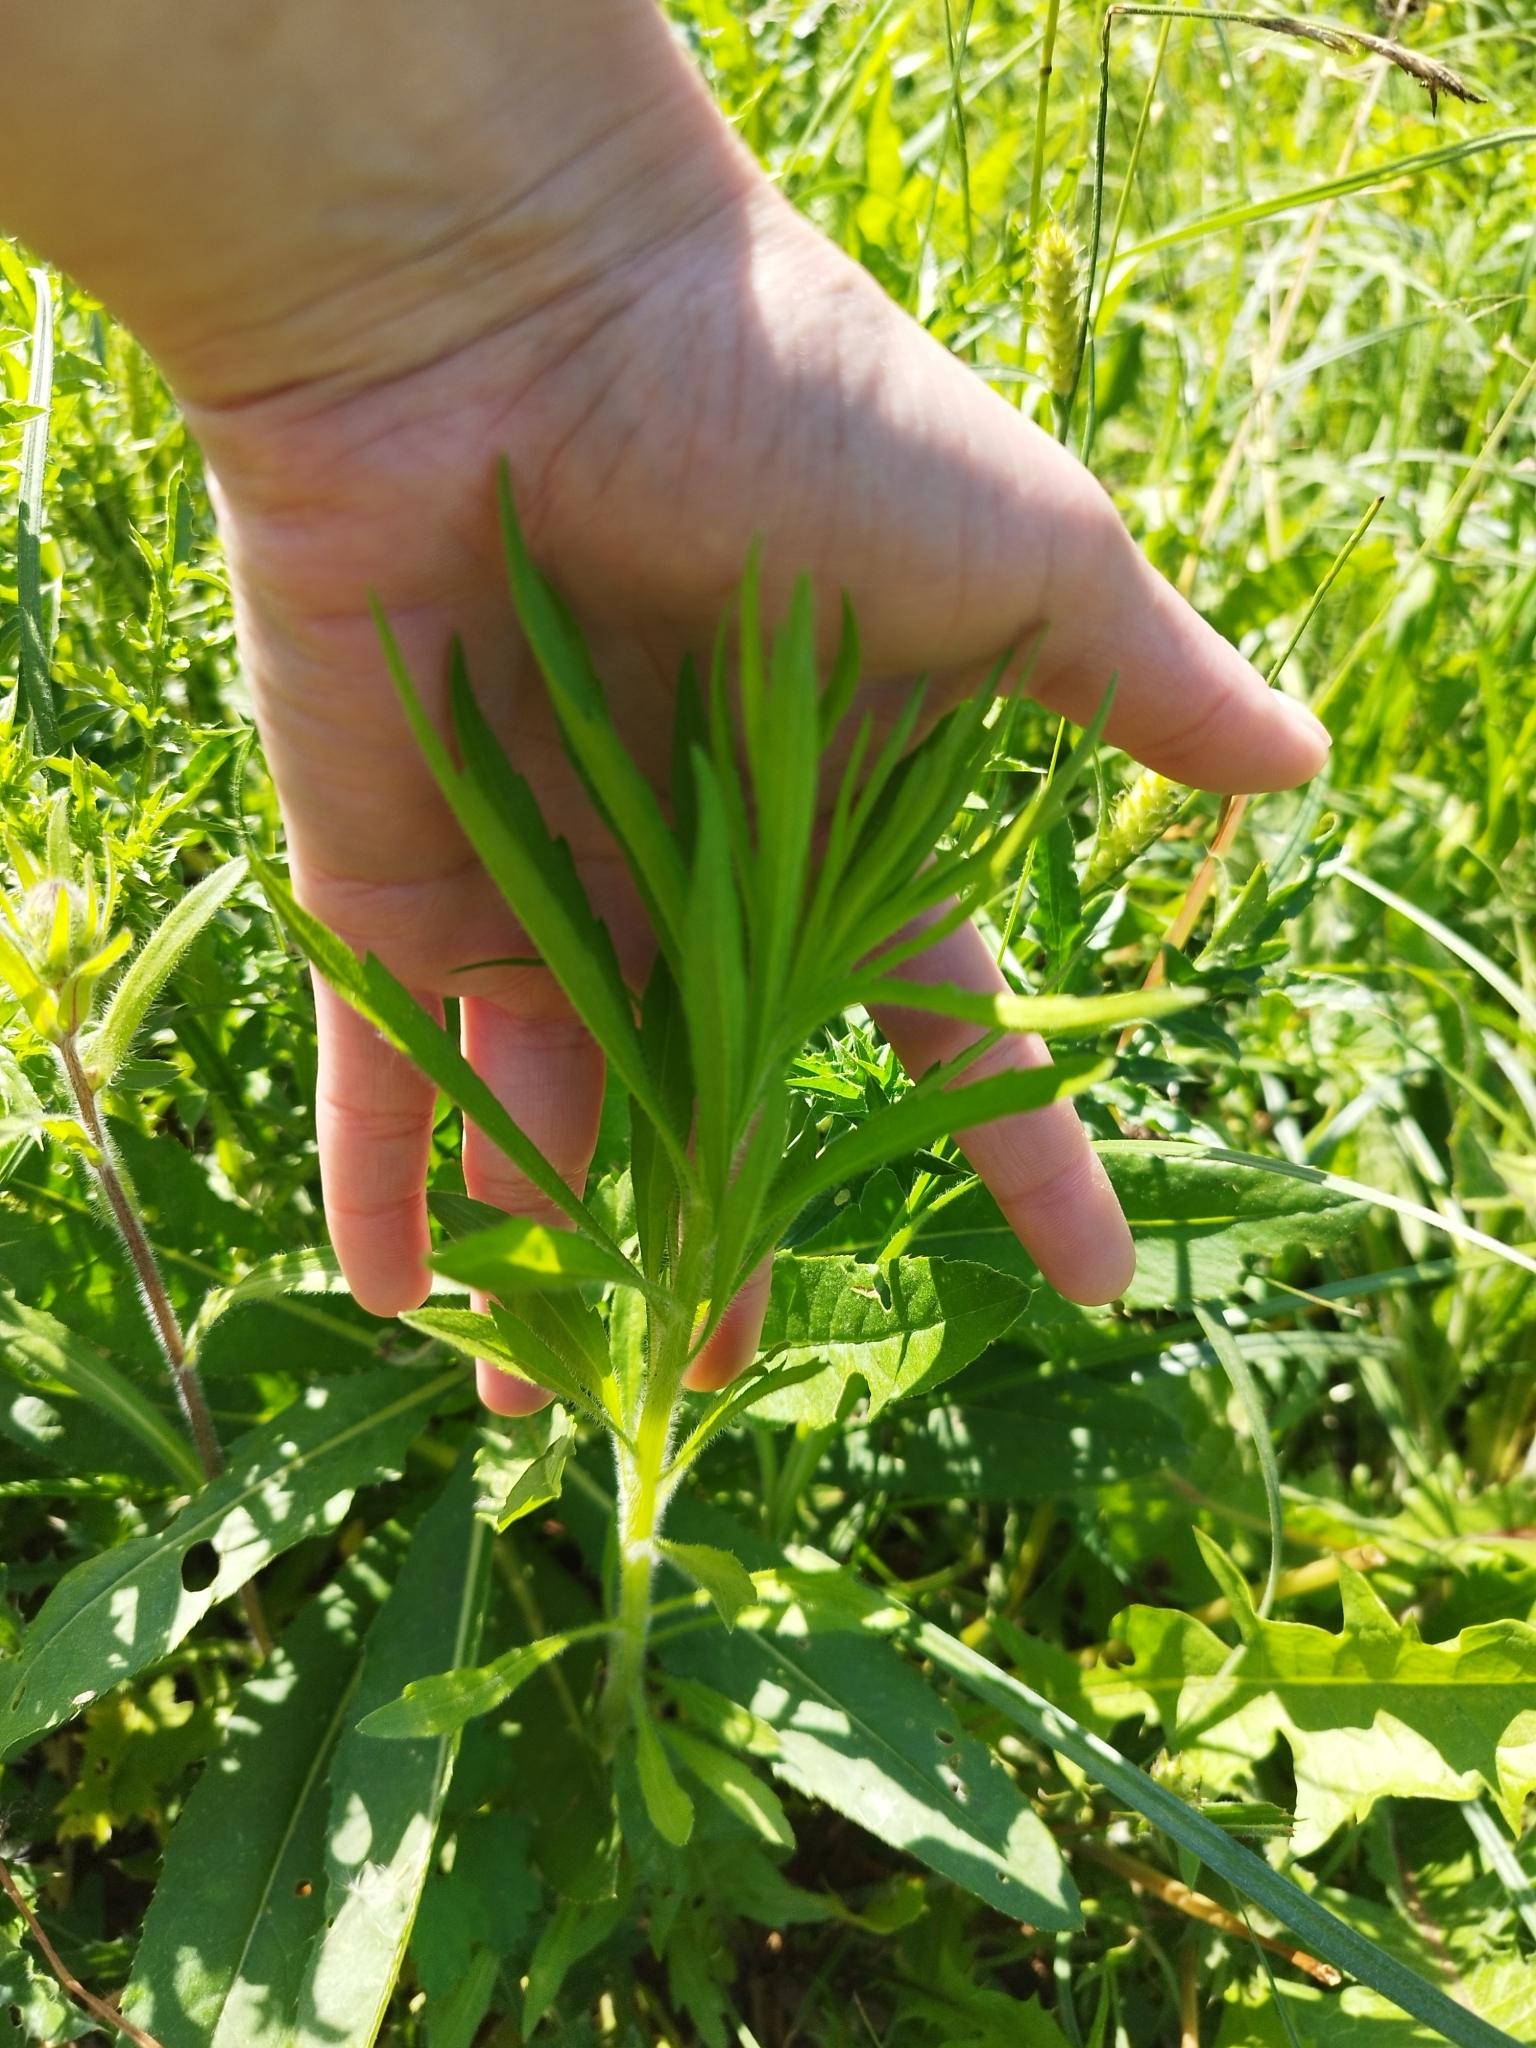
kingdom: Plantae
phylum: Tracheophyta
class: Magnoliopsida
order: Asterales
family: Asteraceae
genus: Erigeron
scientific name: Erigeron canadensis
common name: Canadian fleabane
